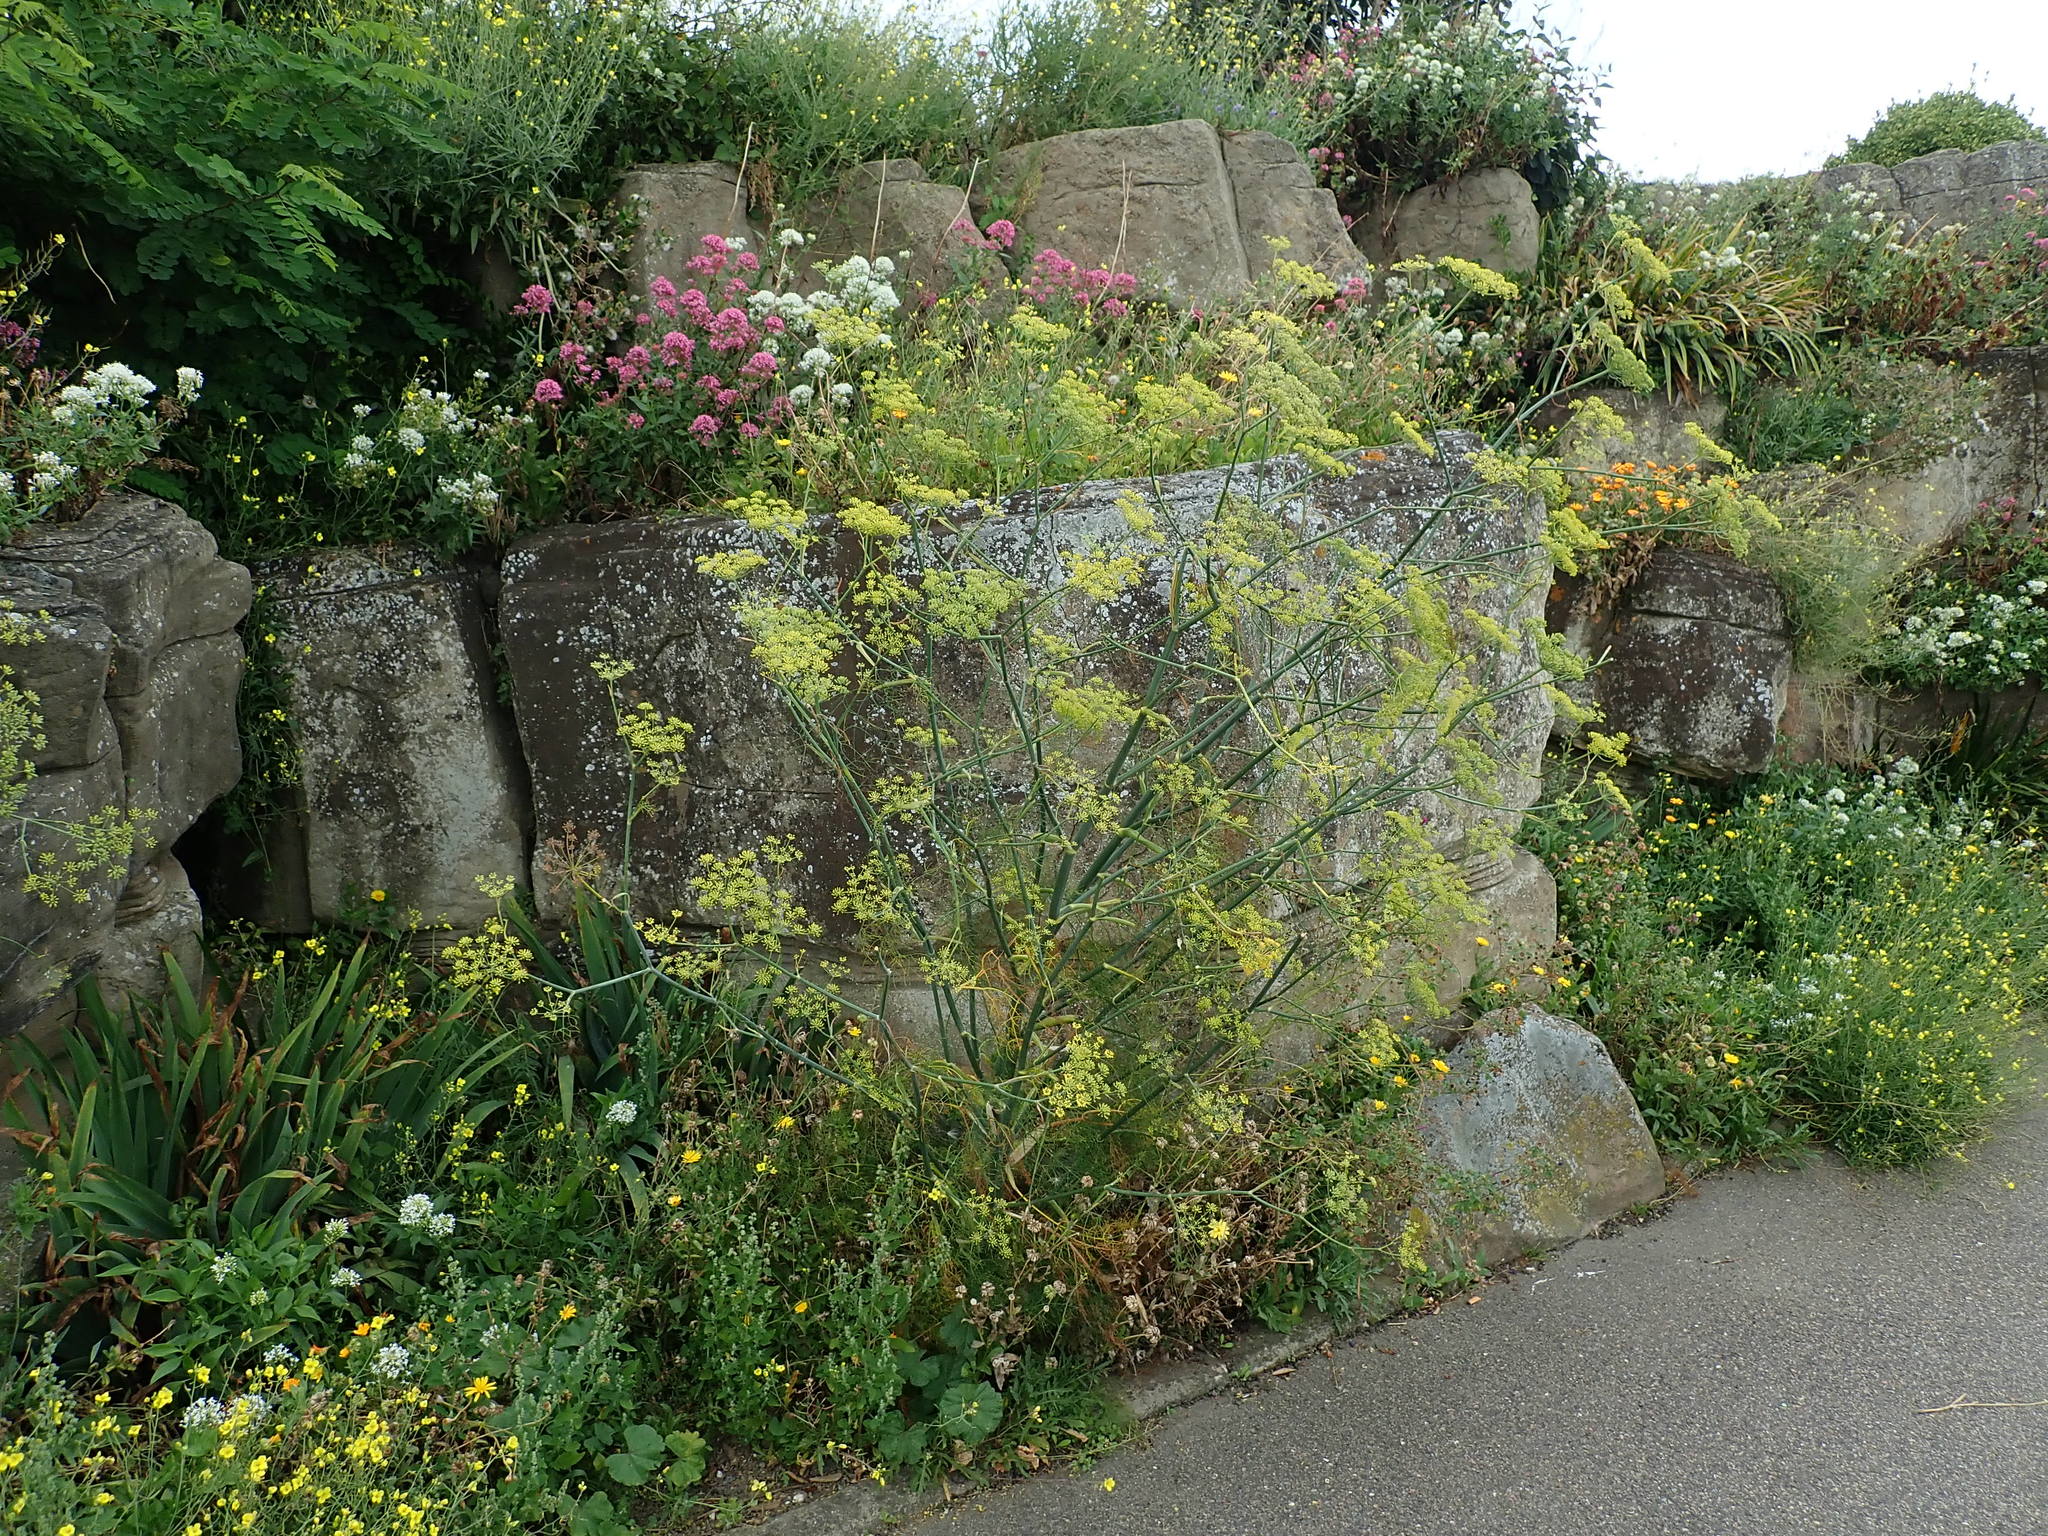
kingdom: Plantae
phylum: Tracheophyta
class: Magnoliopsida
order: Apiales
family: Apiaceae
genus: Foeniculum
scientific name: Foeniculum vulgare
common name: Fennel
